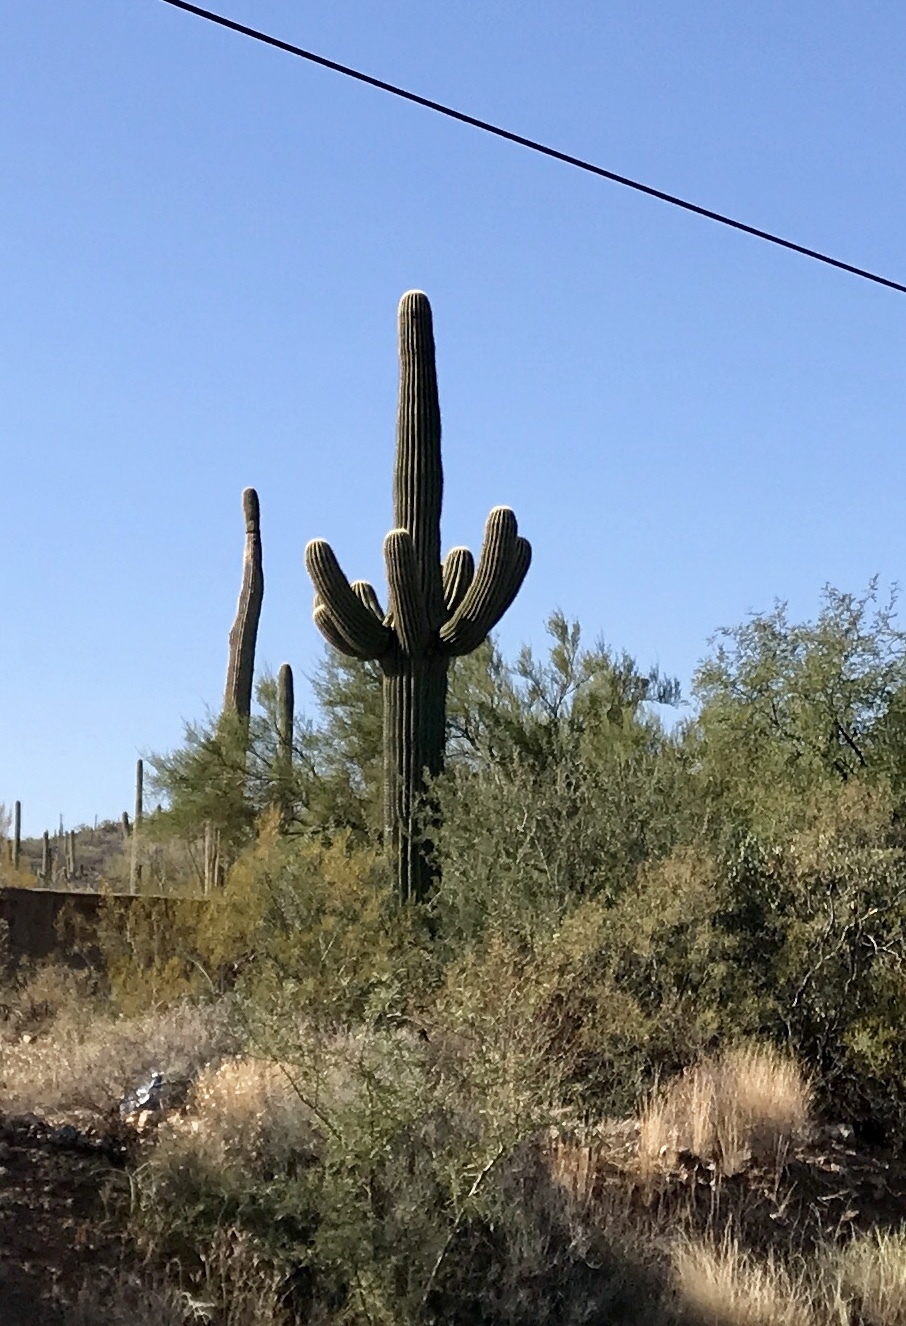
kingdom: Plantae
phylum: Tracheophyta
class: Magnoliopsida
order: Caryophyllales
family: Cactaceae
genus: Carnegiea
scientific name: Carnegiea gigantea
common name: Saguaro
